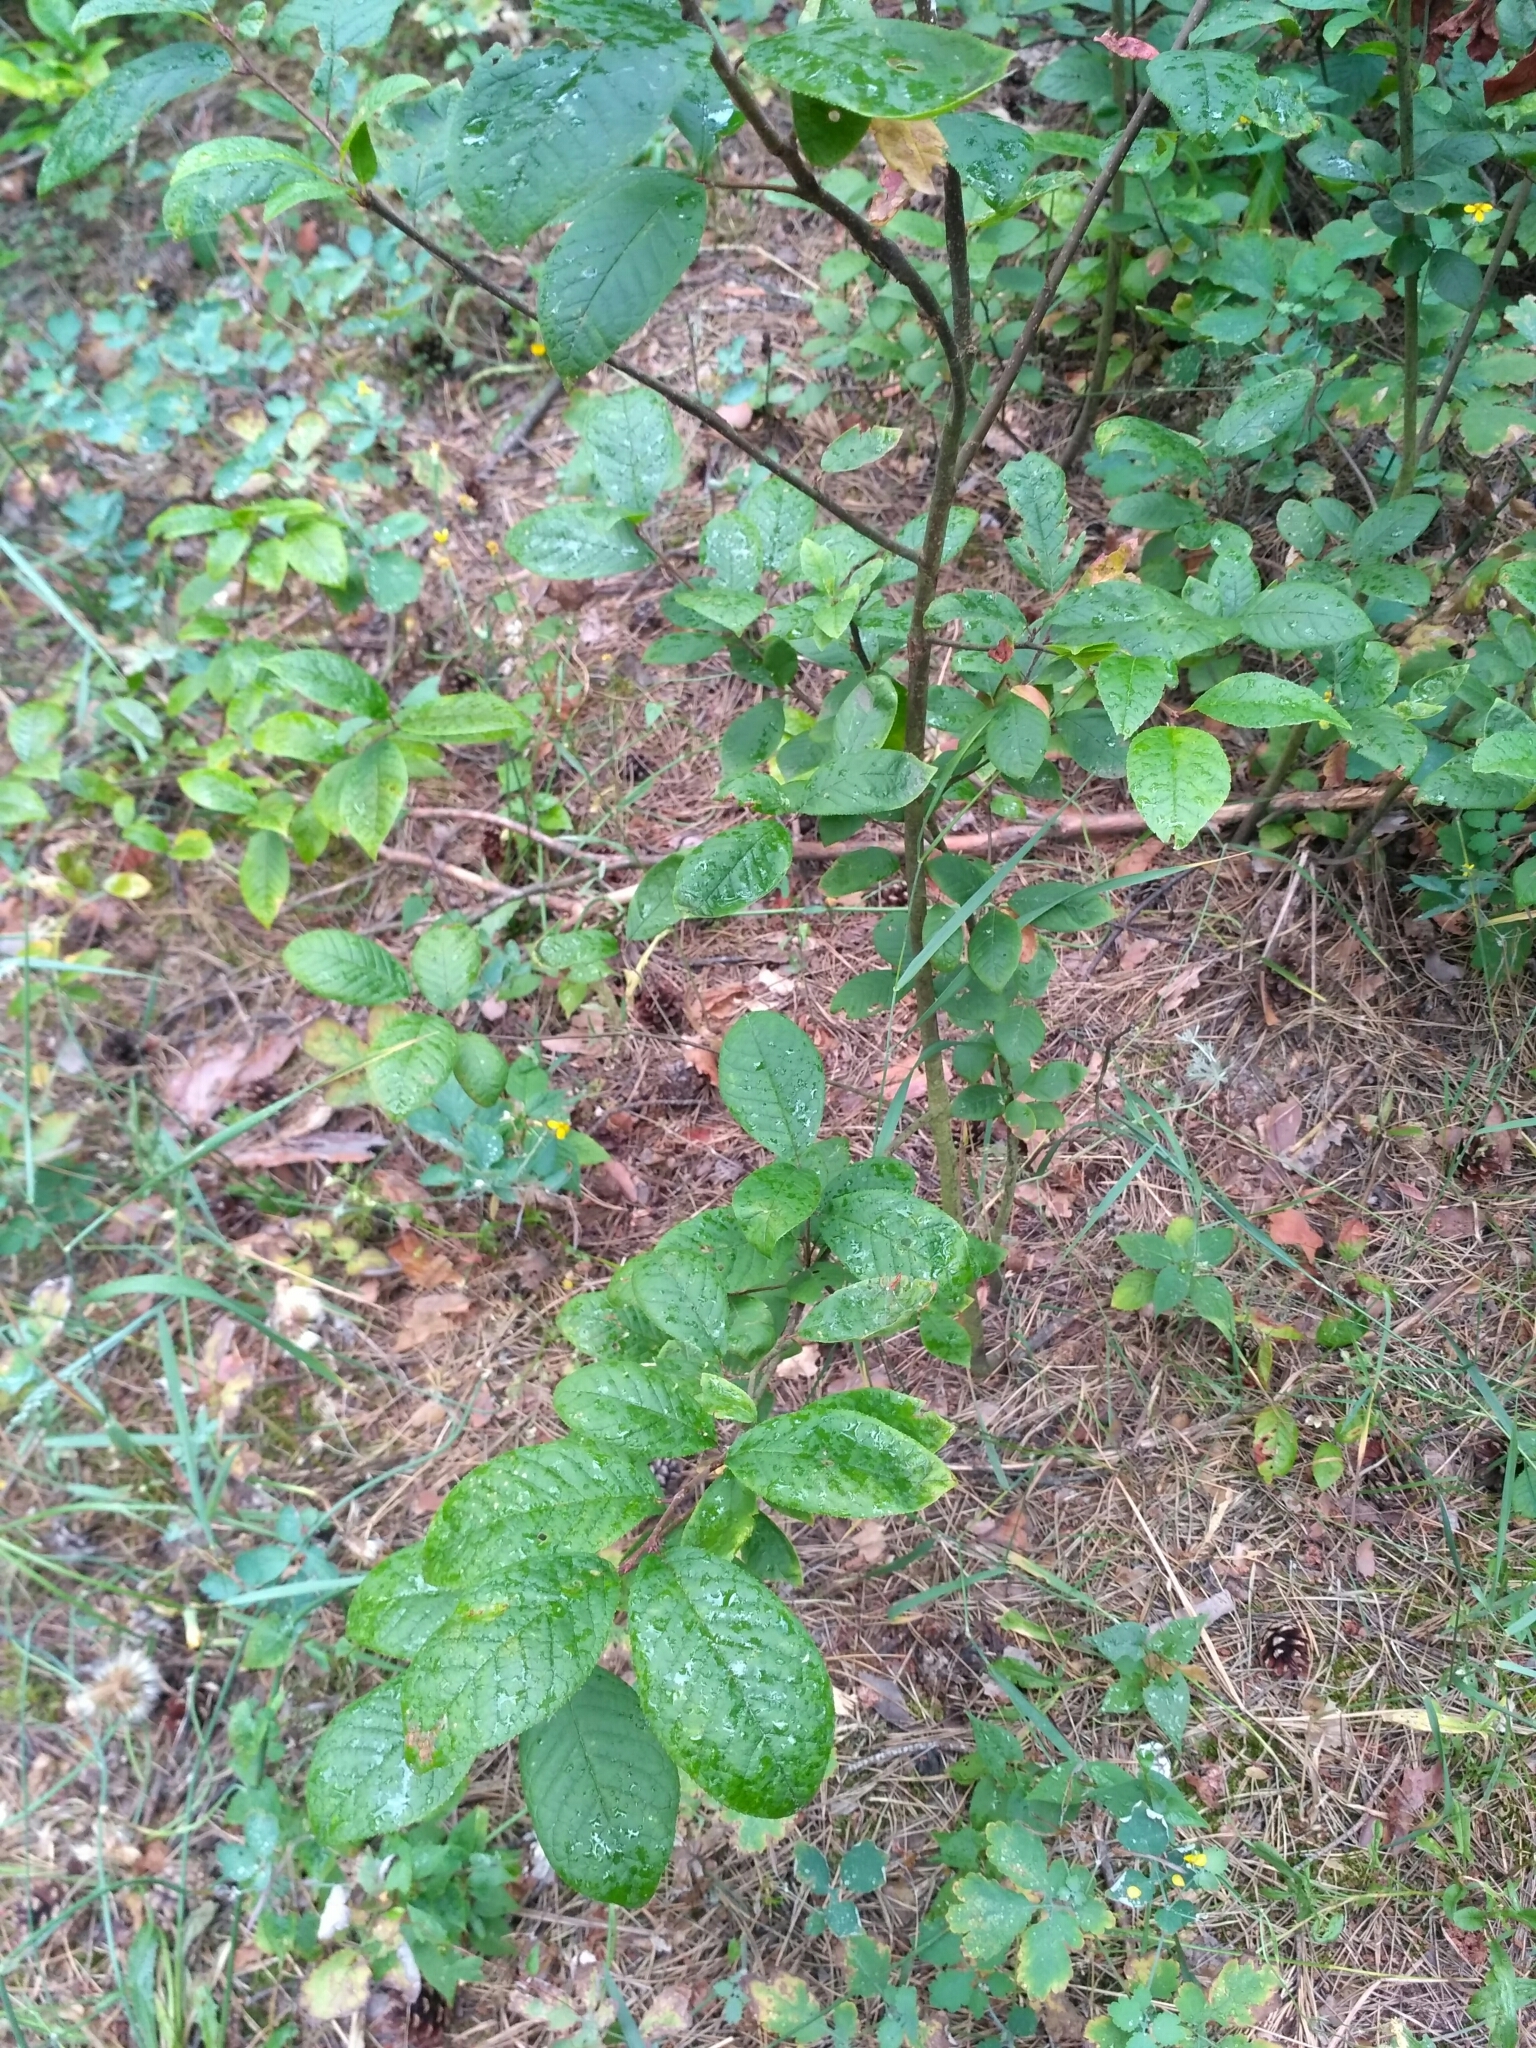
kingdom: Plantae
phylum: Tracheophyta
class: Magnoliopsida
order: Rosales
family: Rosaceae
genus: Prunus
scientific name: Prunus padus
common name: Bird cherry
